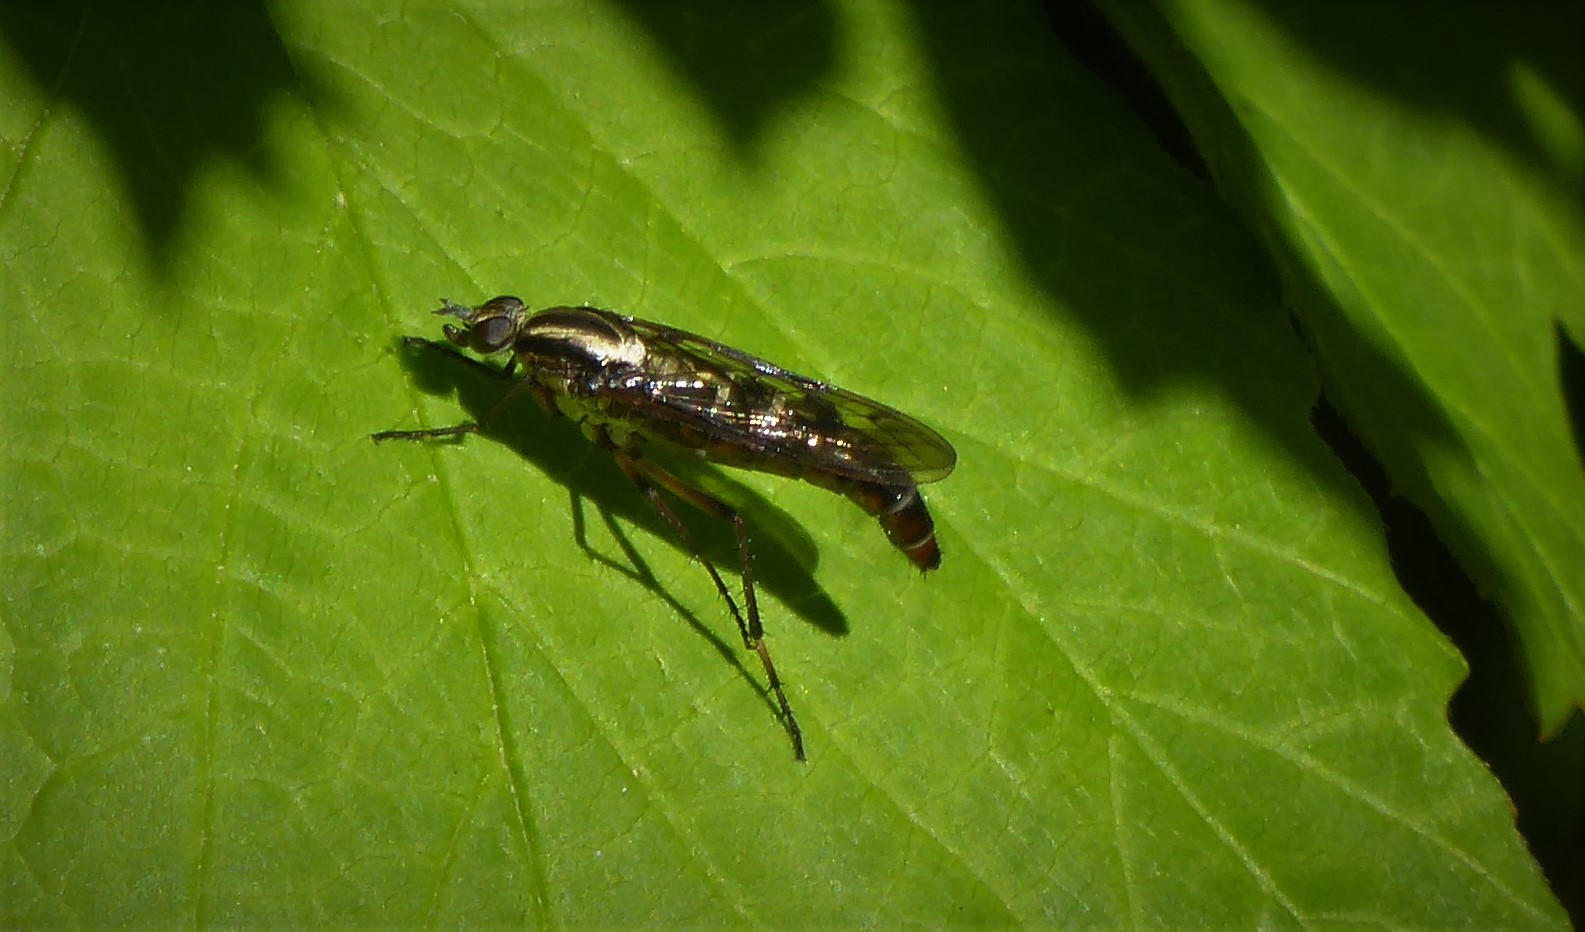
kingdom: Animalia
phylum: Arthropoda
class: Insecta
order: Diptera
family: Therevidae
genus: Anabarhynchus
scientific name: Anabarhynchus micans
